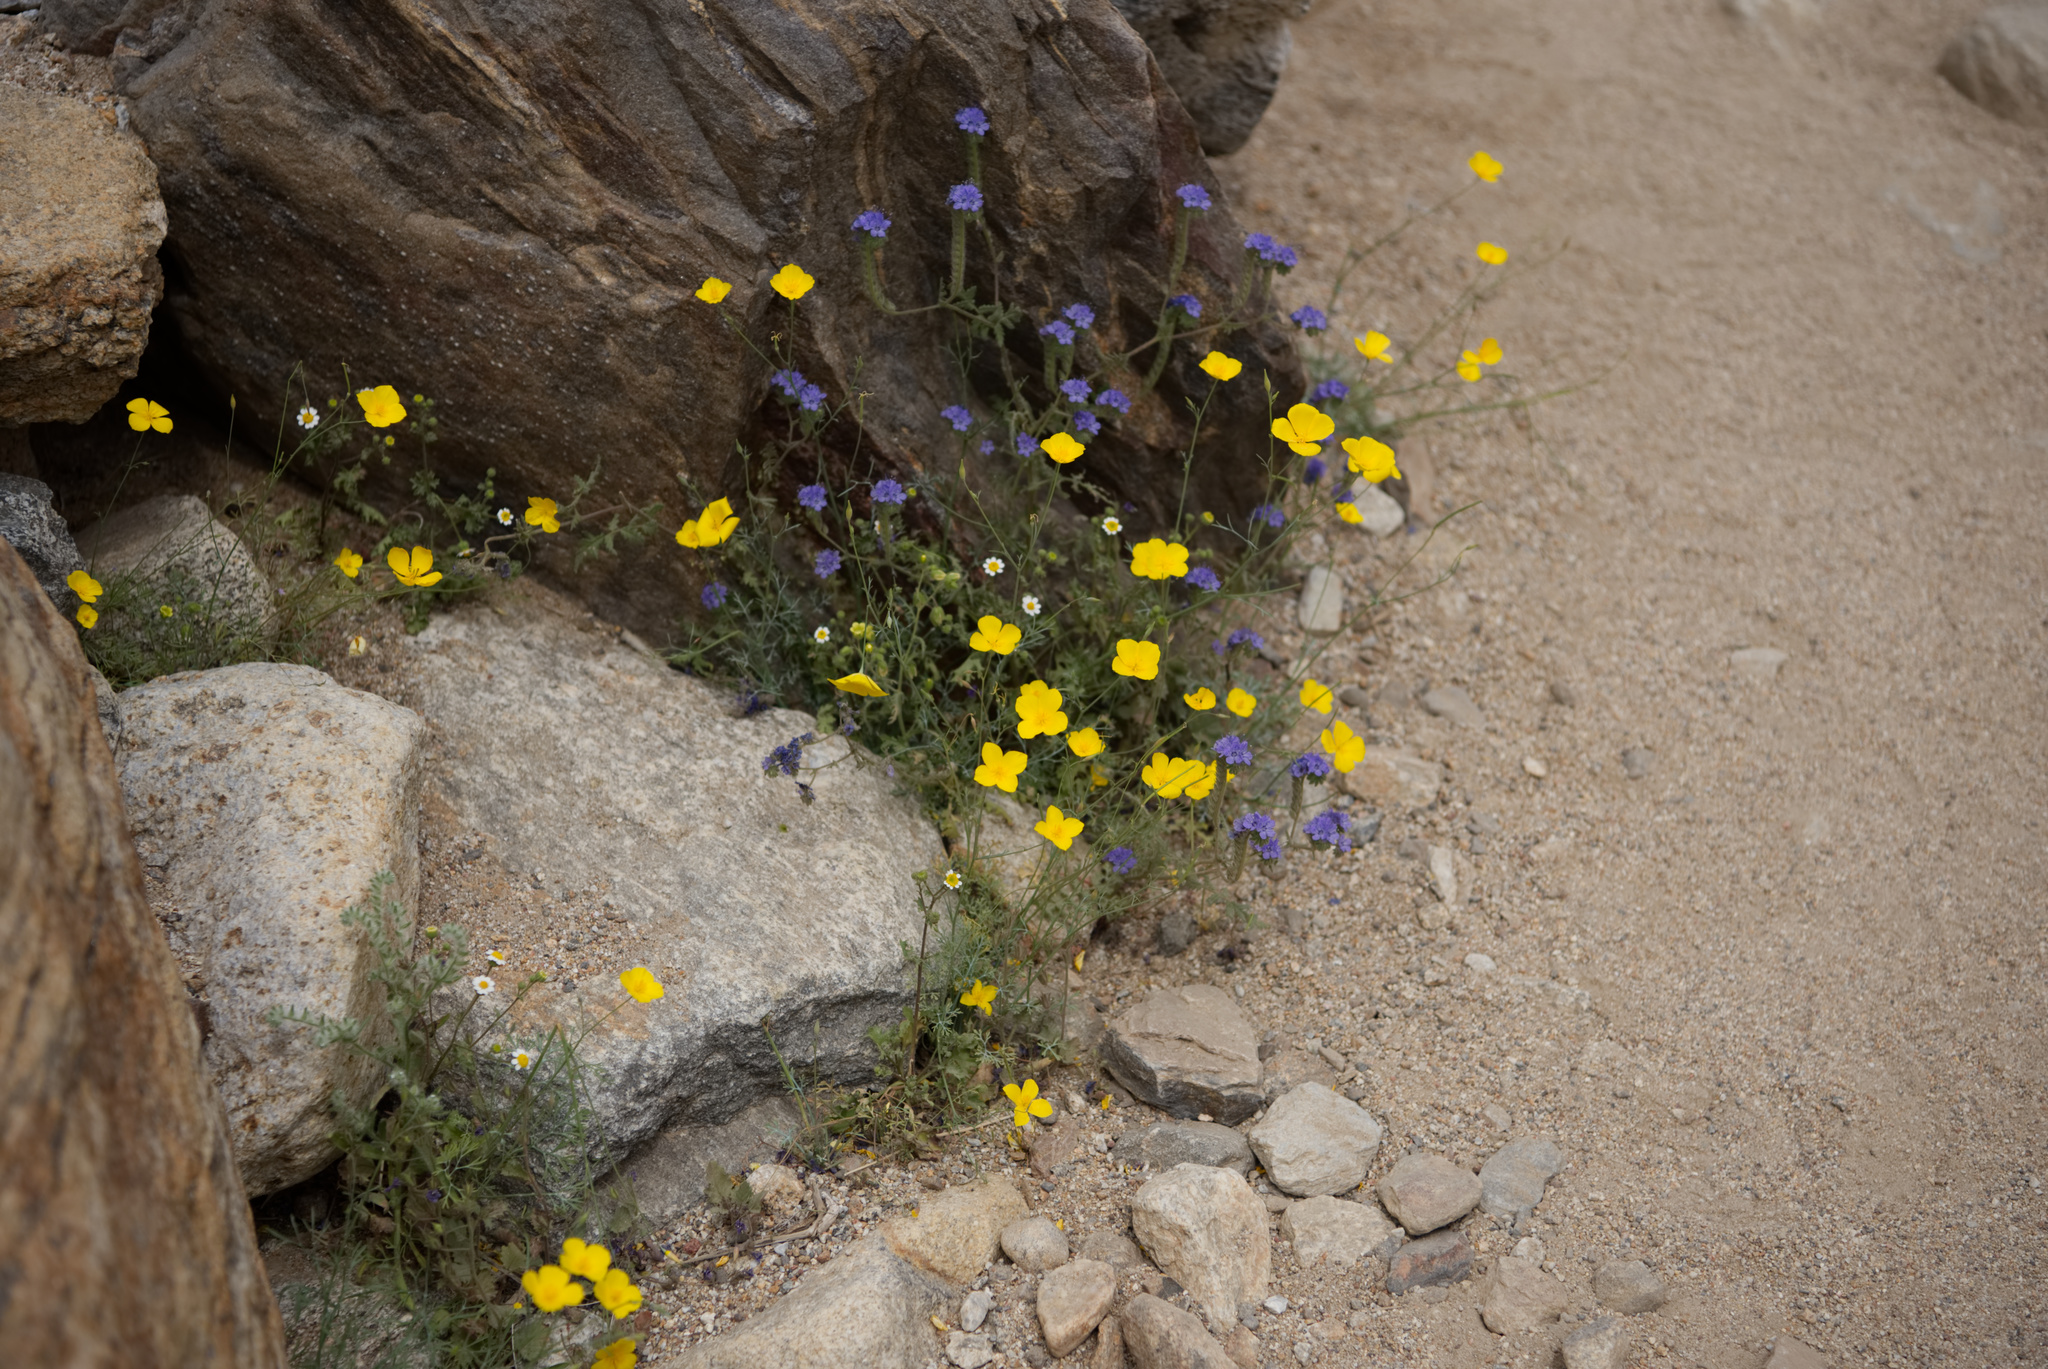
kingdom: Plantae
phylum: Tracheophyta
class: Magnoliopsida
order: Ranunculales
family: Papaveraceae
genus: Eschscholzia
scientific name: Eschscholzia parishii
